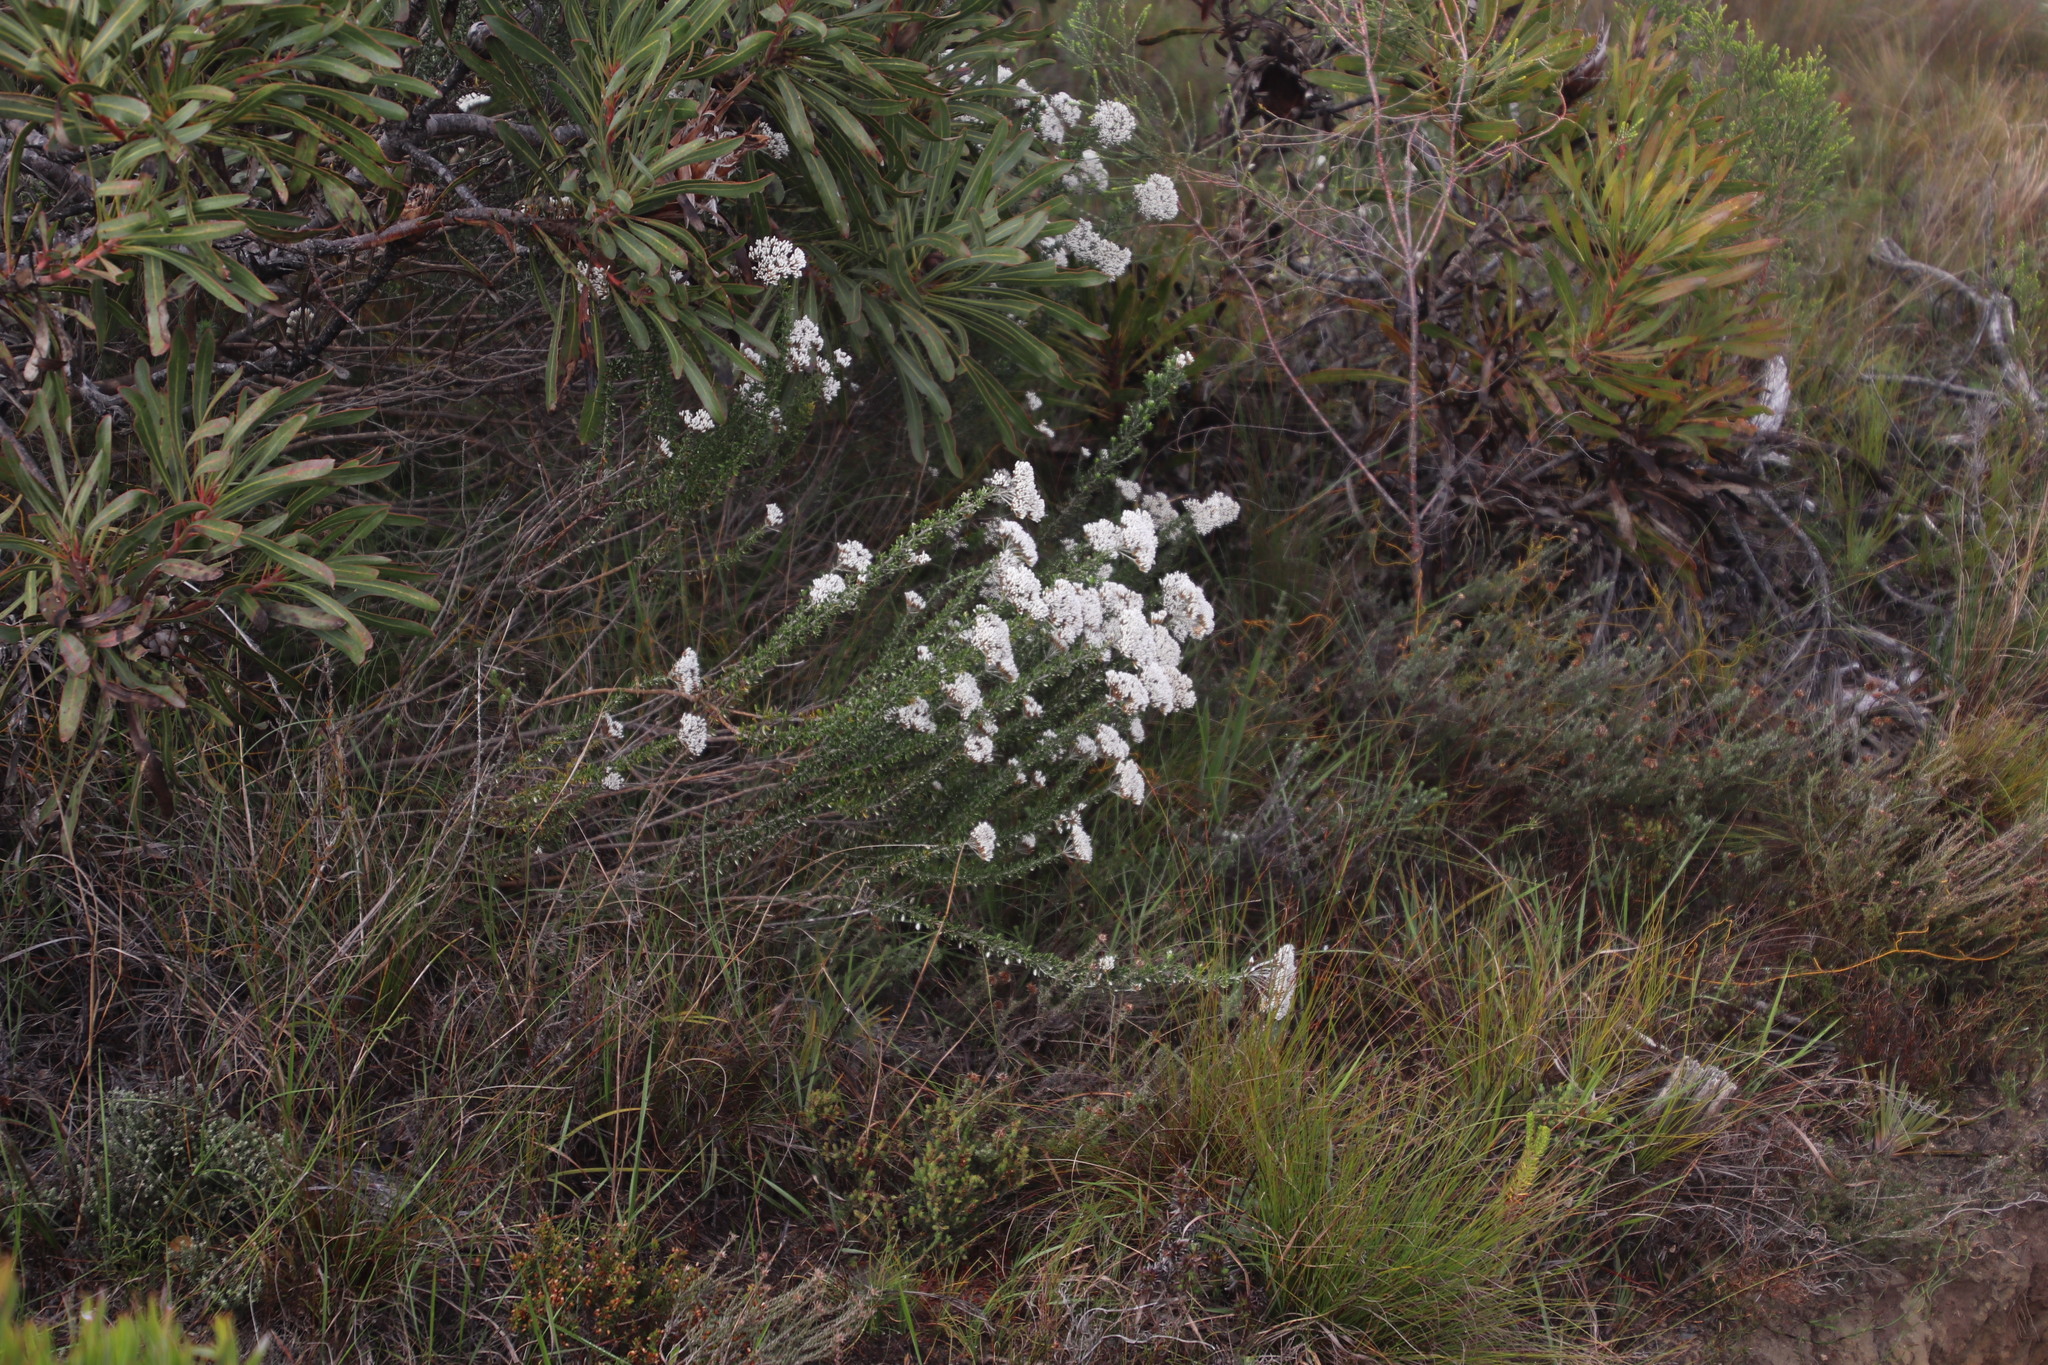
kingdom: Plantae
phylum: Tracheophyta
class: Magnoliopsida
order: Asterales
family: Asteraceae
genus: Metalasia
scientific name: Metalasia densa
